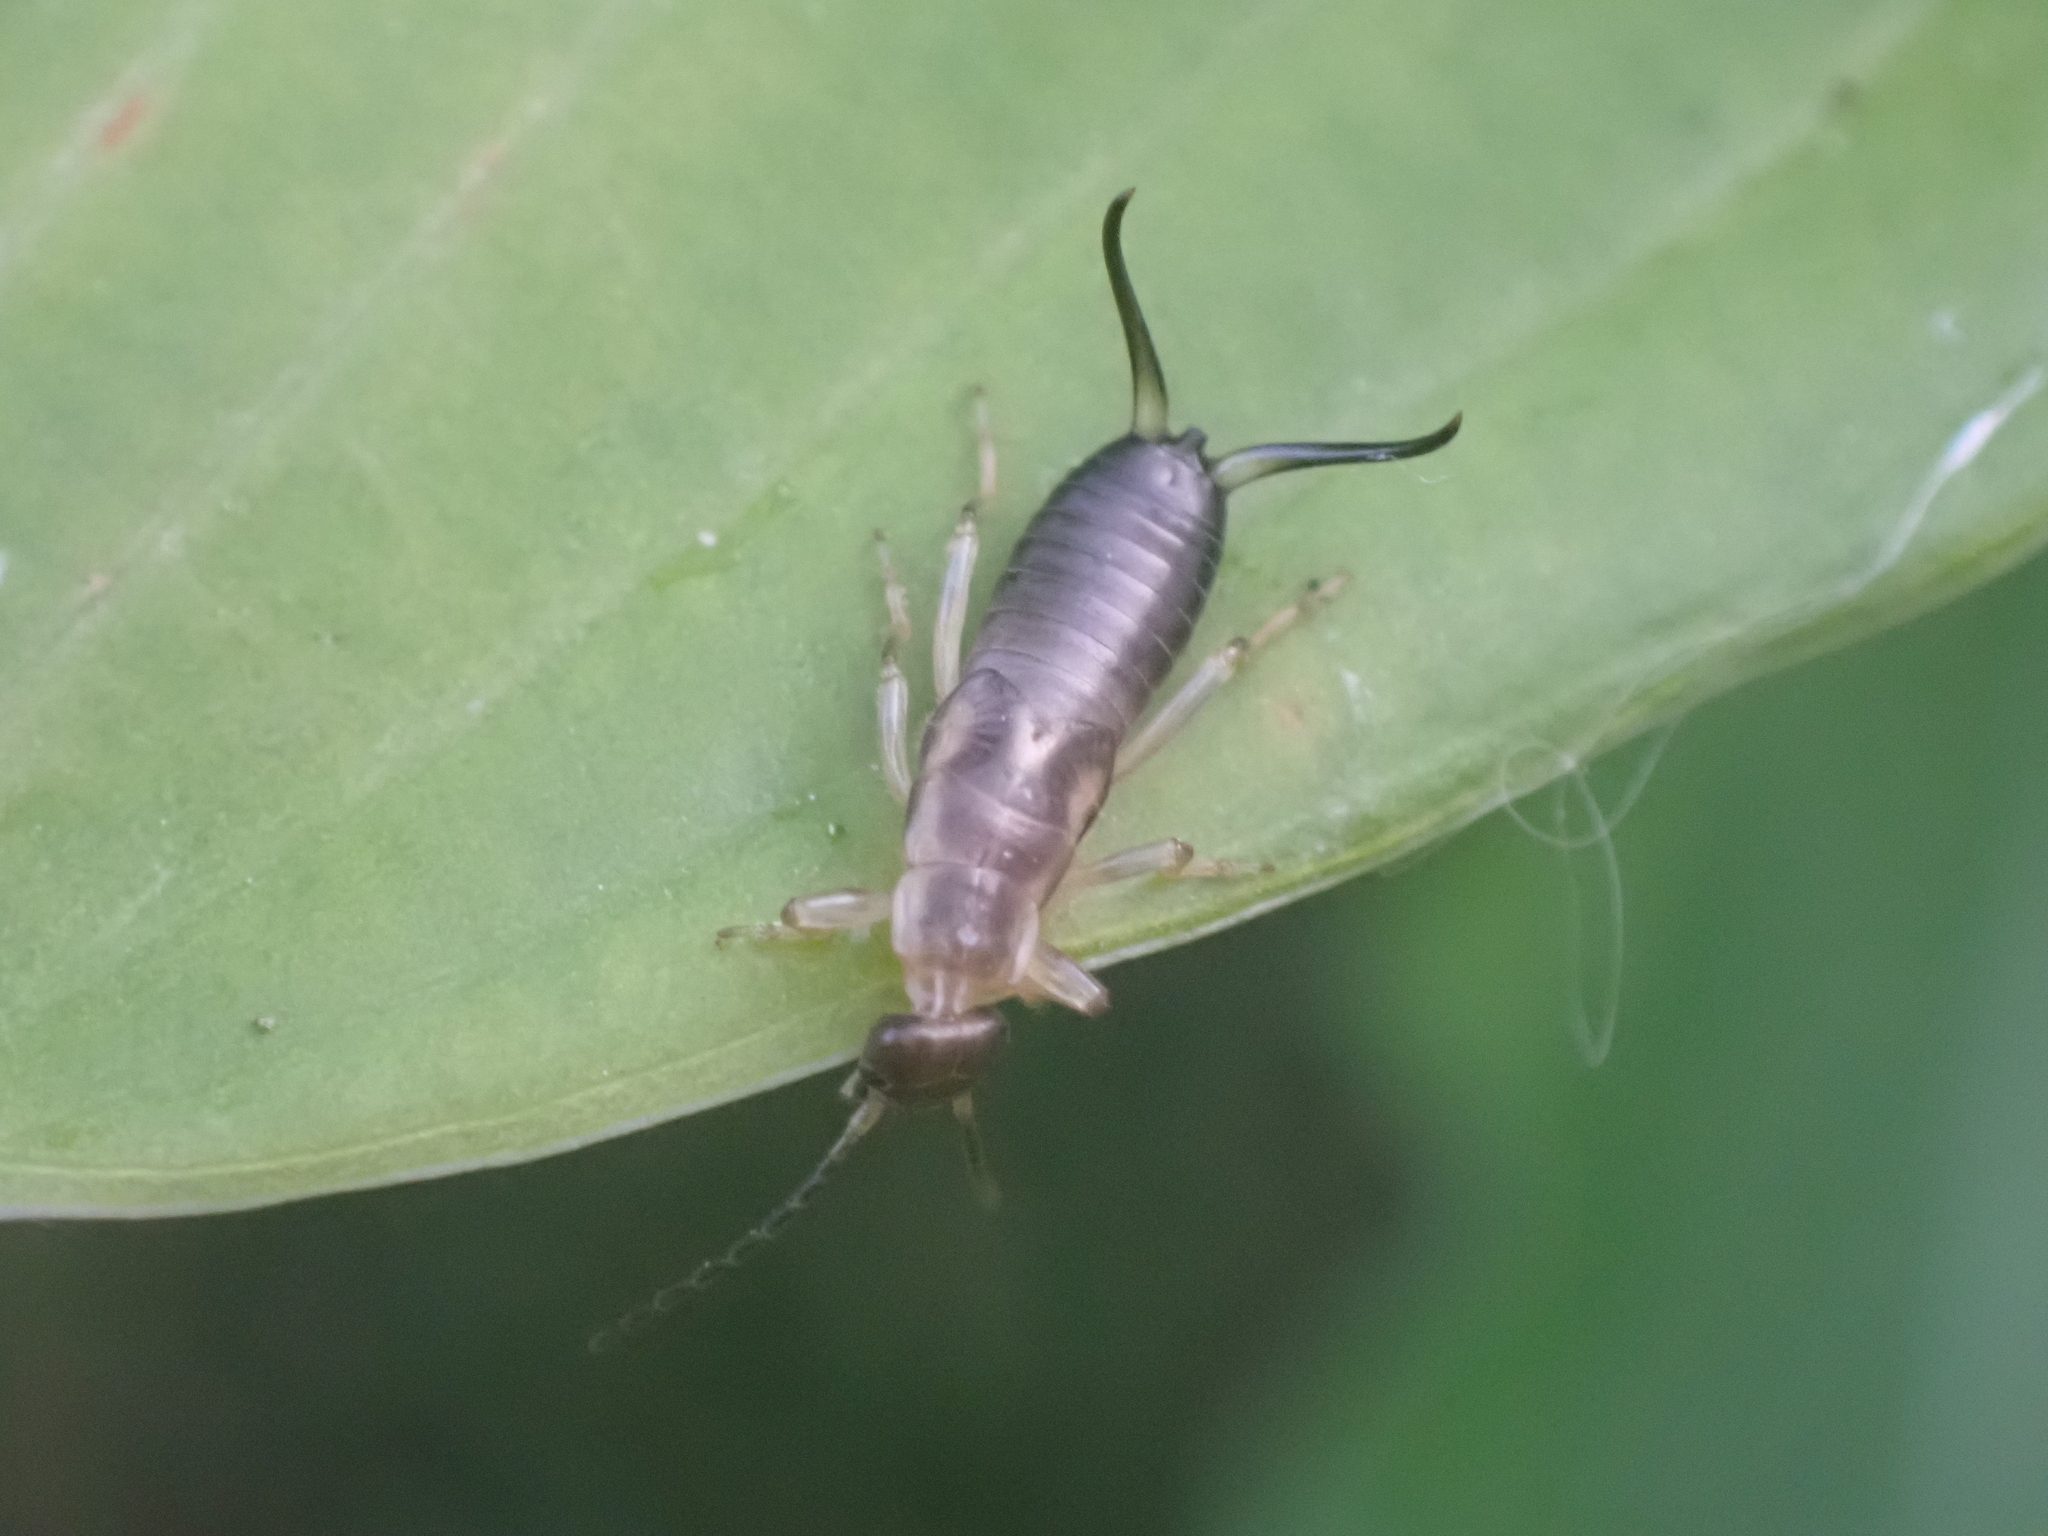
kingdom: Animalia
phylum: Arthropoda
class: Insecta
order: Dermaptera
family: Forficulidae
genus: Forficula
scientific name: Forficula auricularia
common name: European earwig
